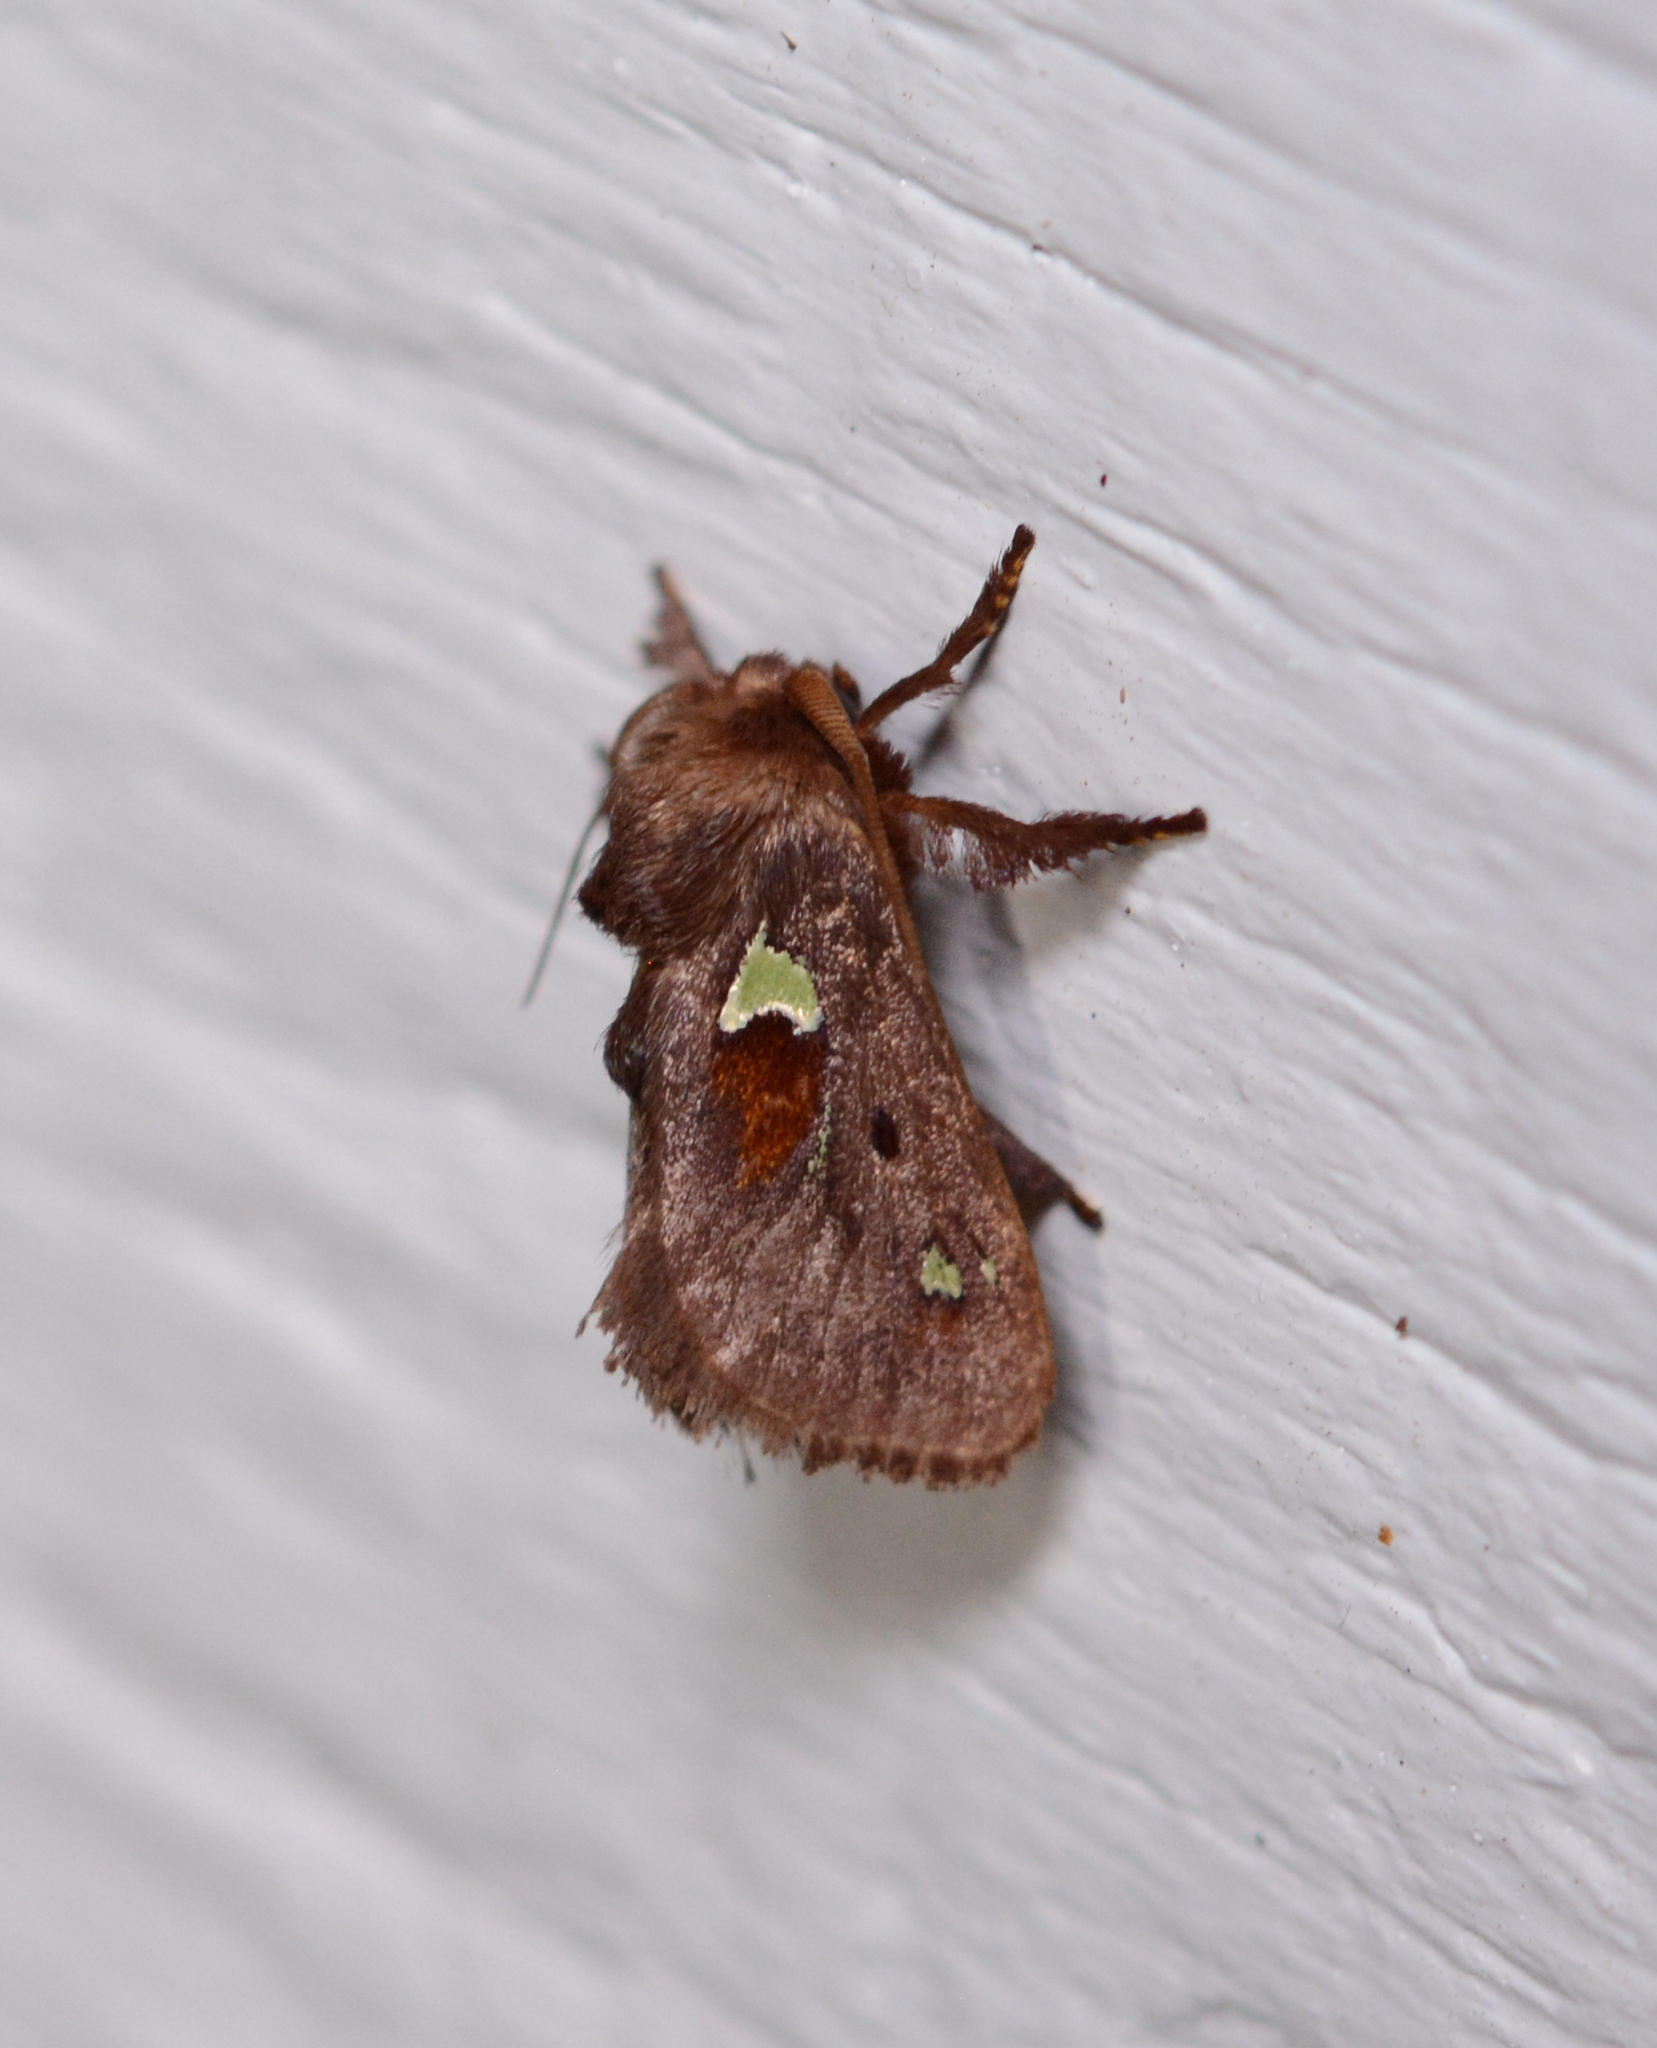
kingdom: Animalia
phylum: Arthropoda
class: Insecta
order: Lepidoptera
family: Limacodidae
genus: Euclea
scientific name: Euclea delphinii
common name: Spiny oak-slug moth
